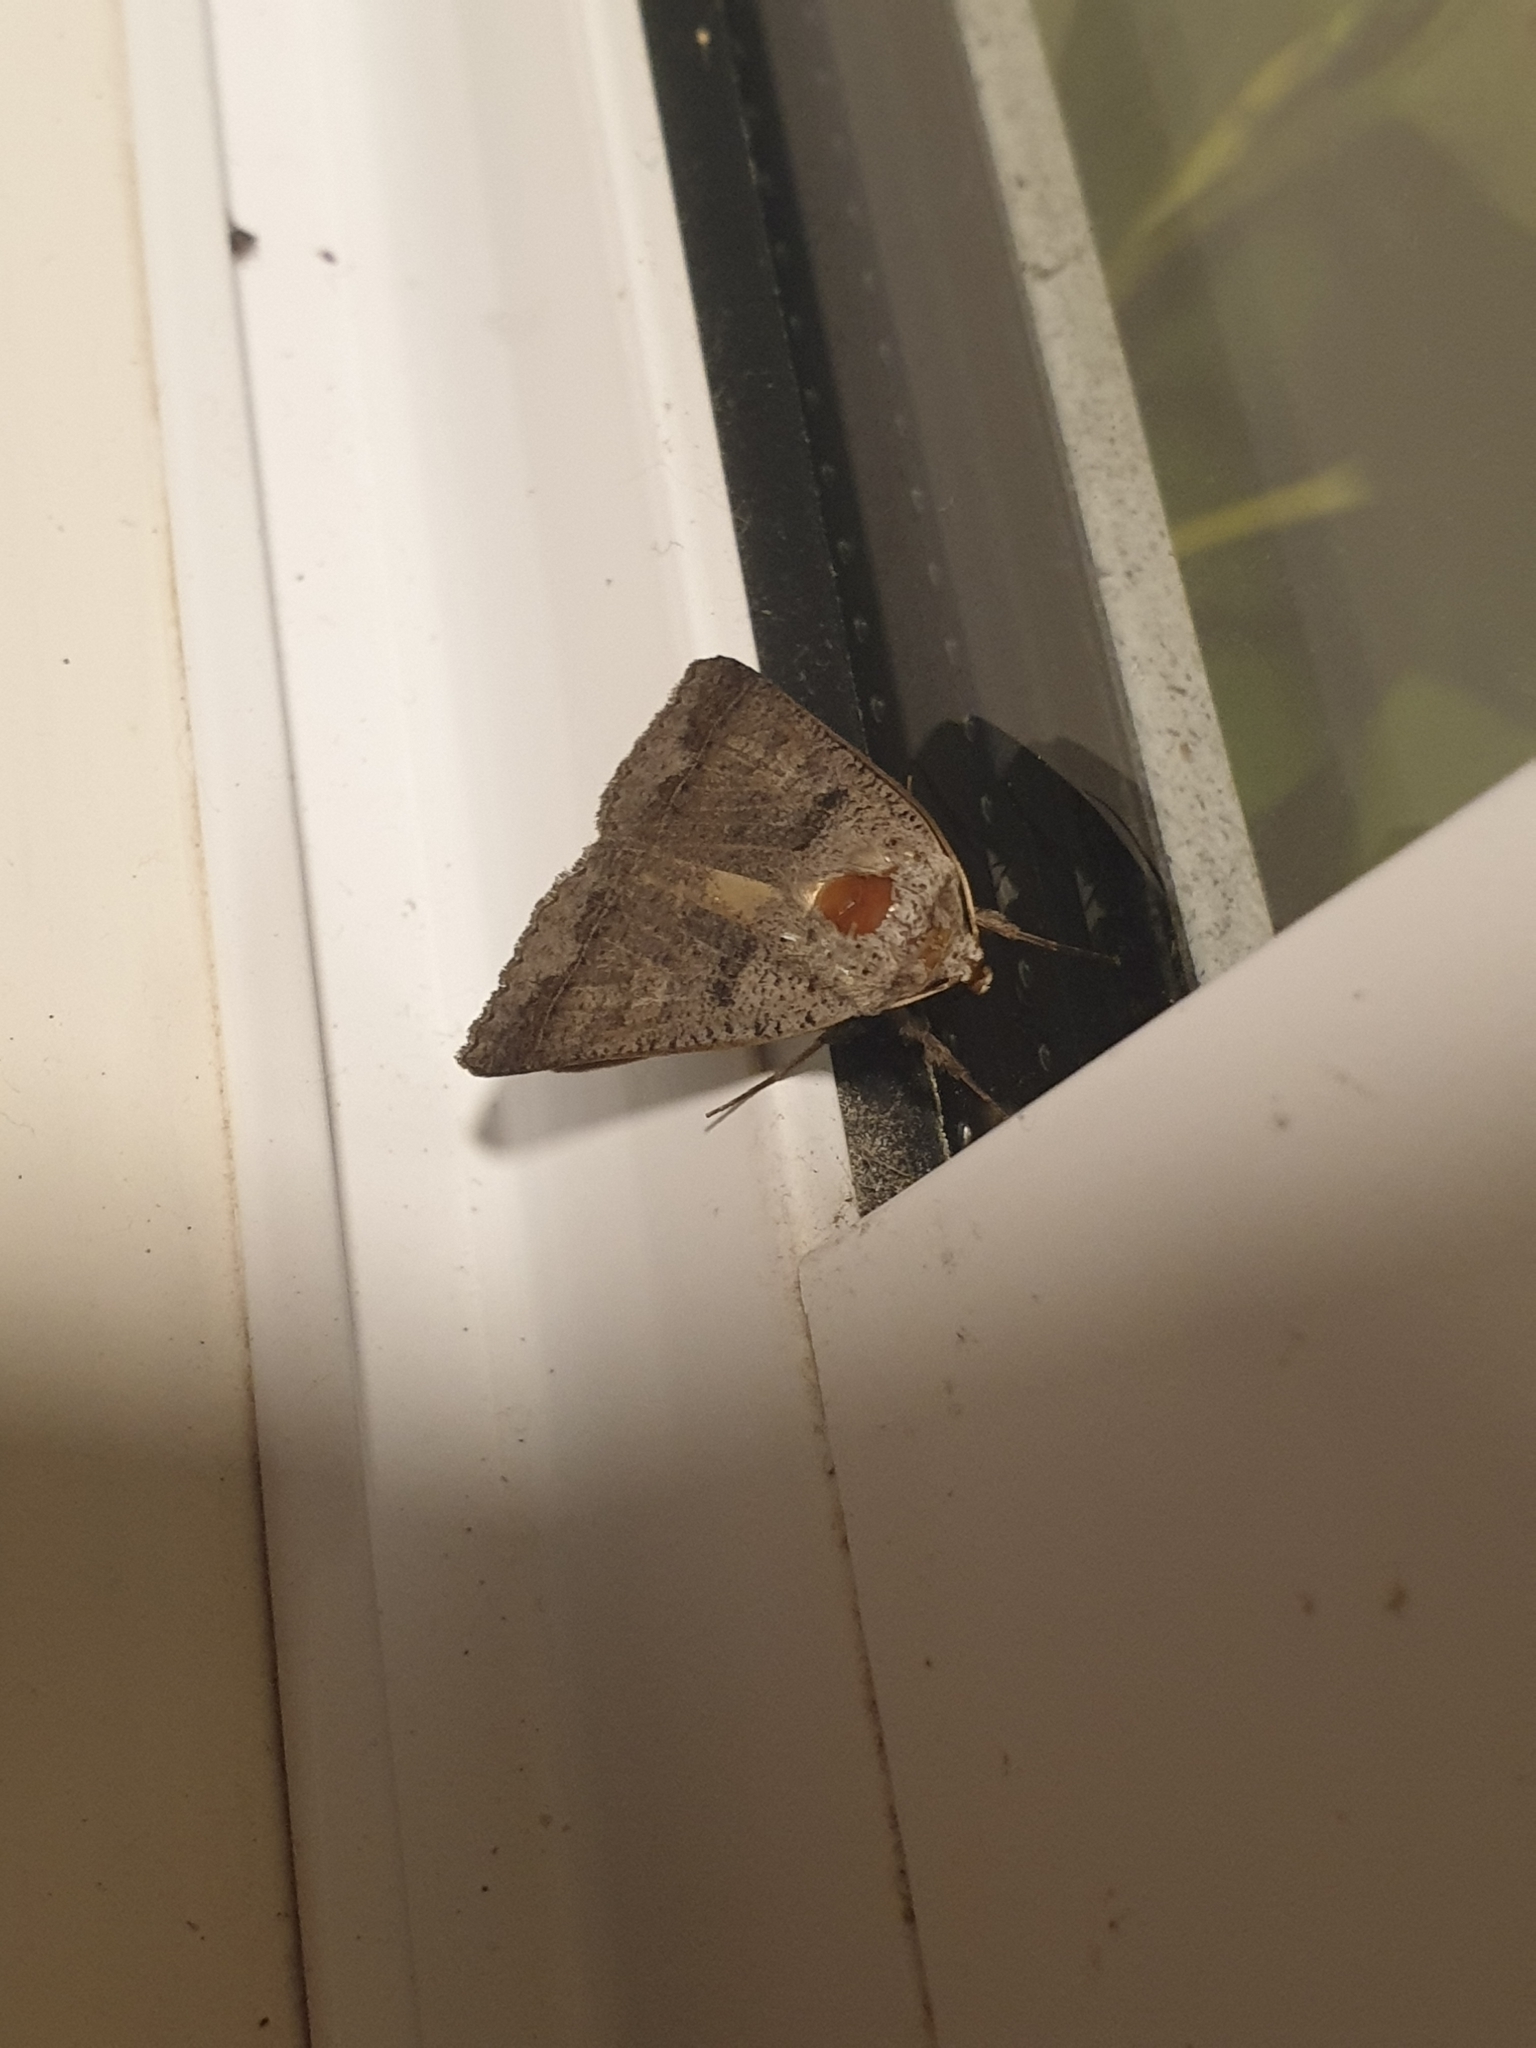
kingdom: Animalia
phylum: Arthropoda
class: Insecta
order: Lepidoptera
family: Erebidae
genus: Pantydia
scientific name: Pantydia sparsa
